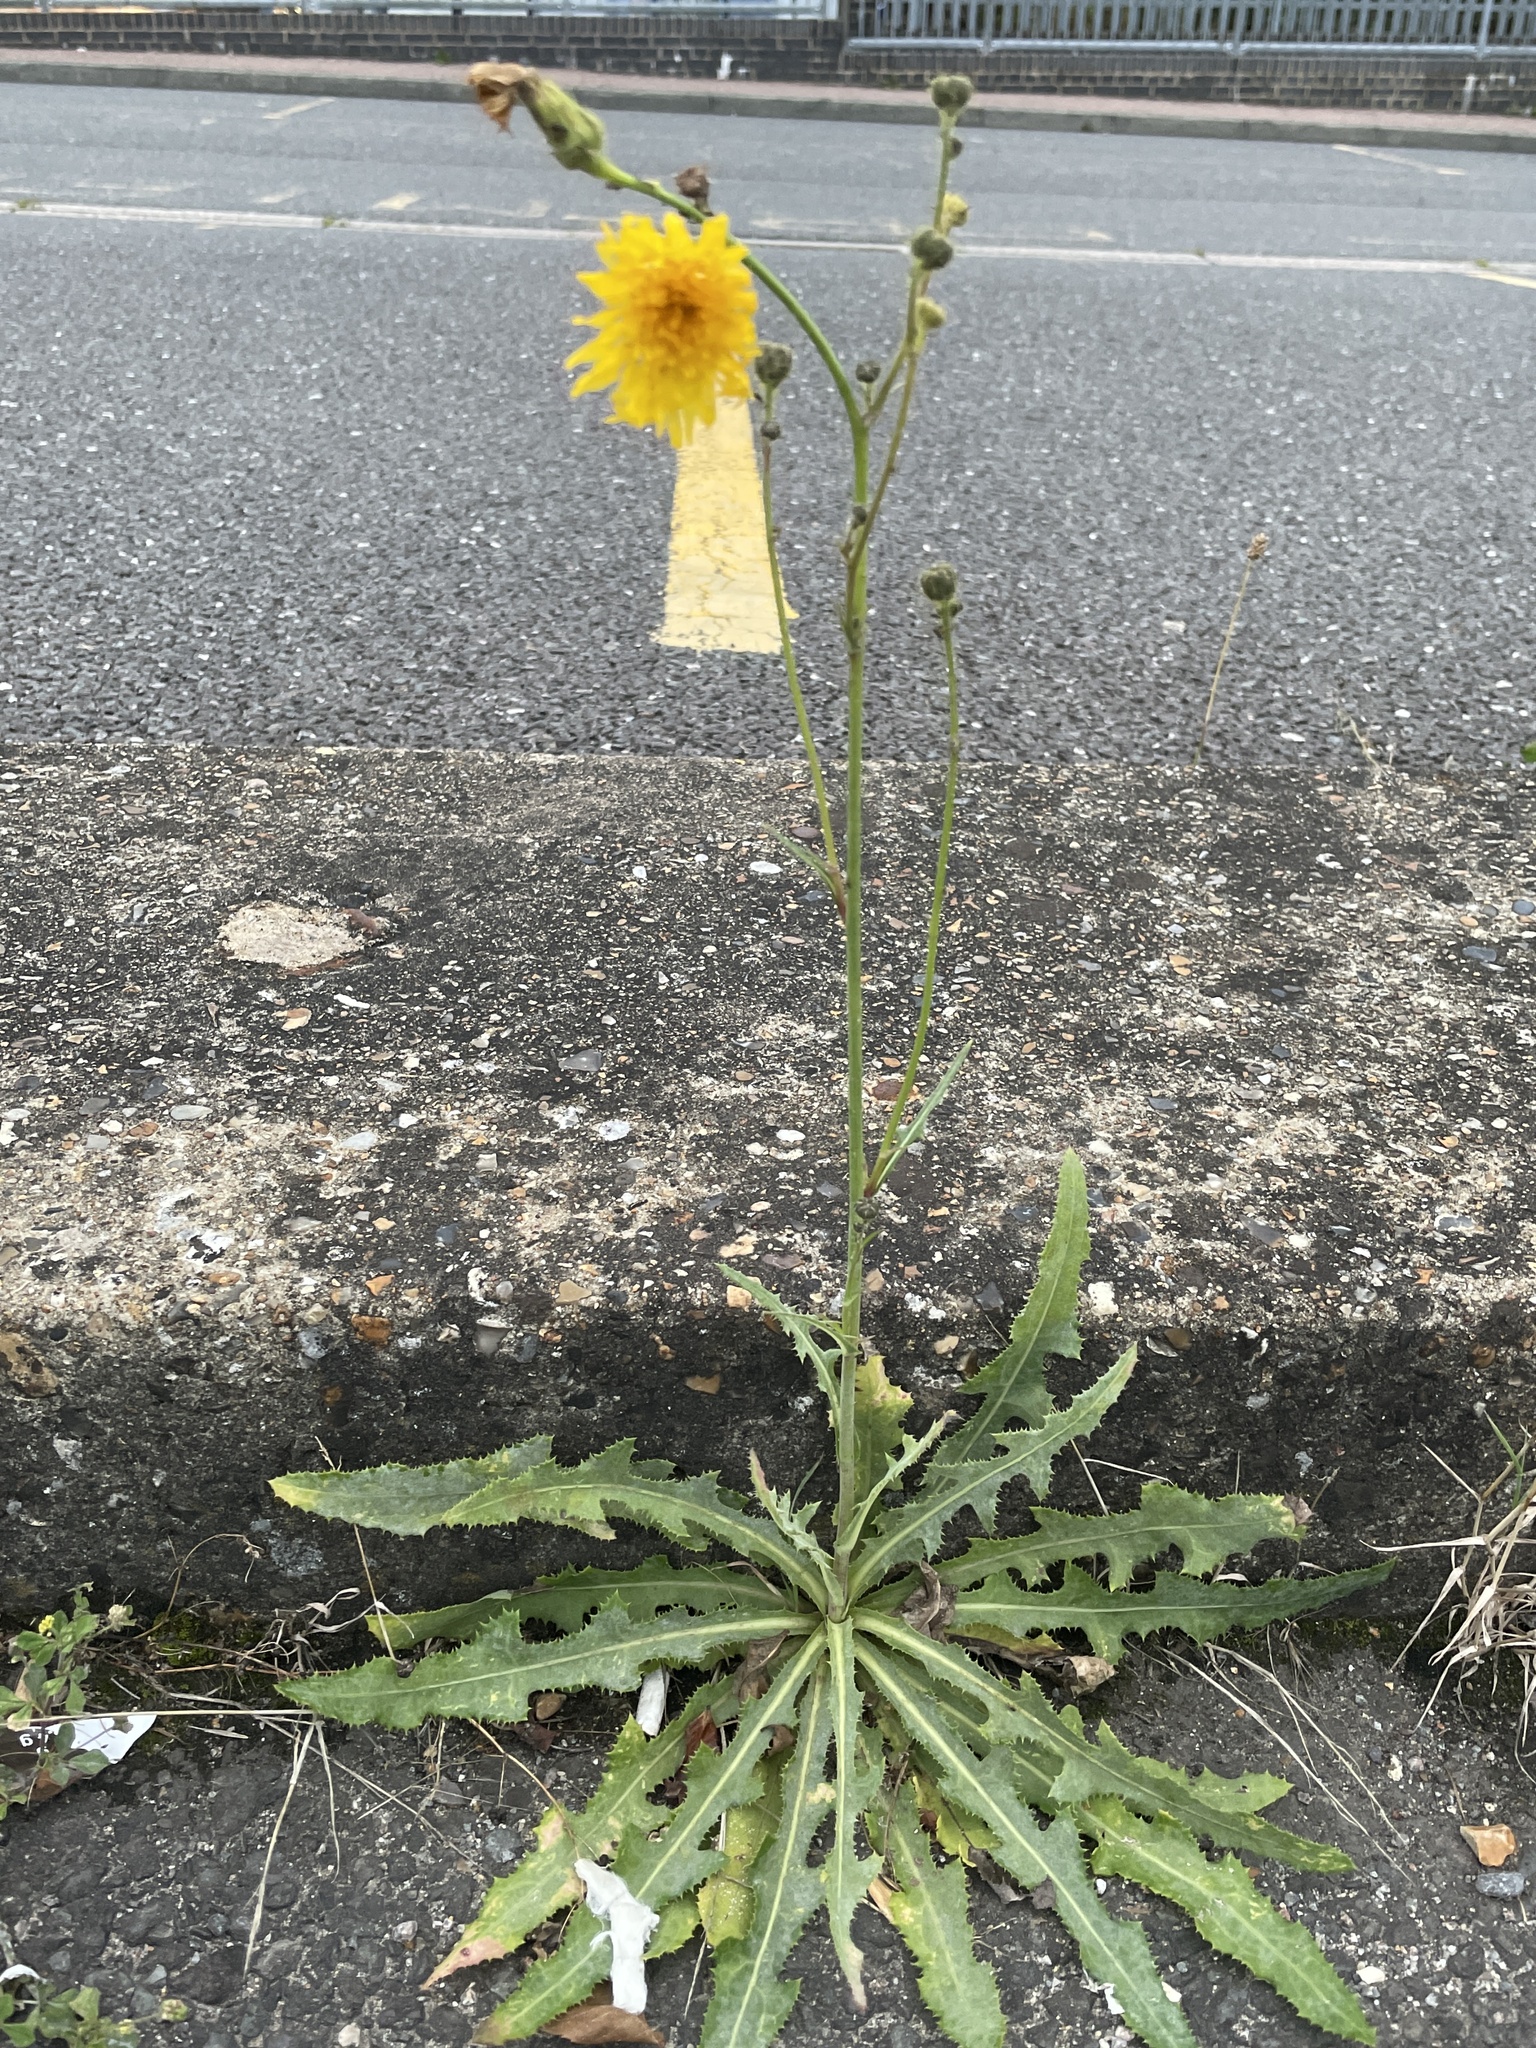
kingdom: Plantae
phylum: Tracheophyta
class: Magnoliopsida
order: Asterales
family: Asteraceae
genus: Sonchus
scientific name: Sonchus arvensis
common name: Perennial sow-thistle
